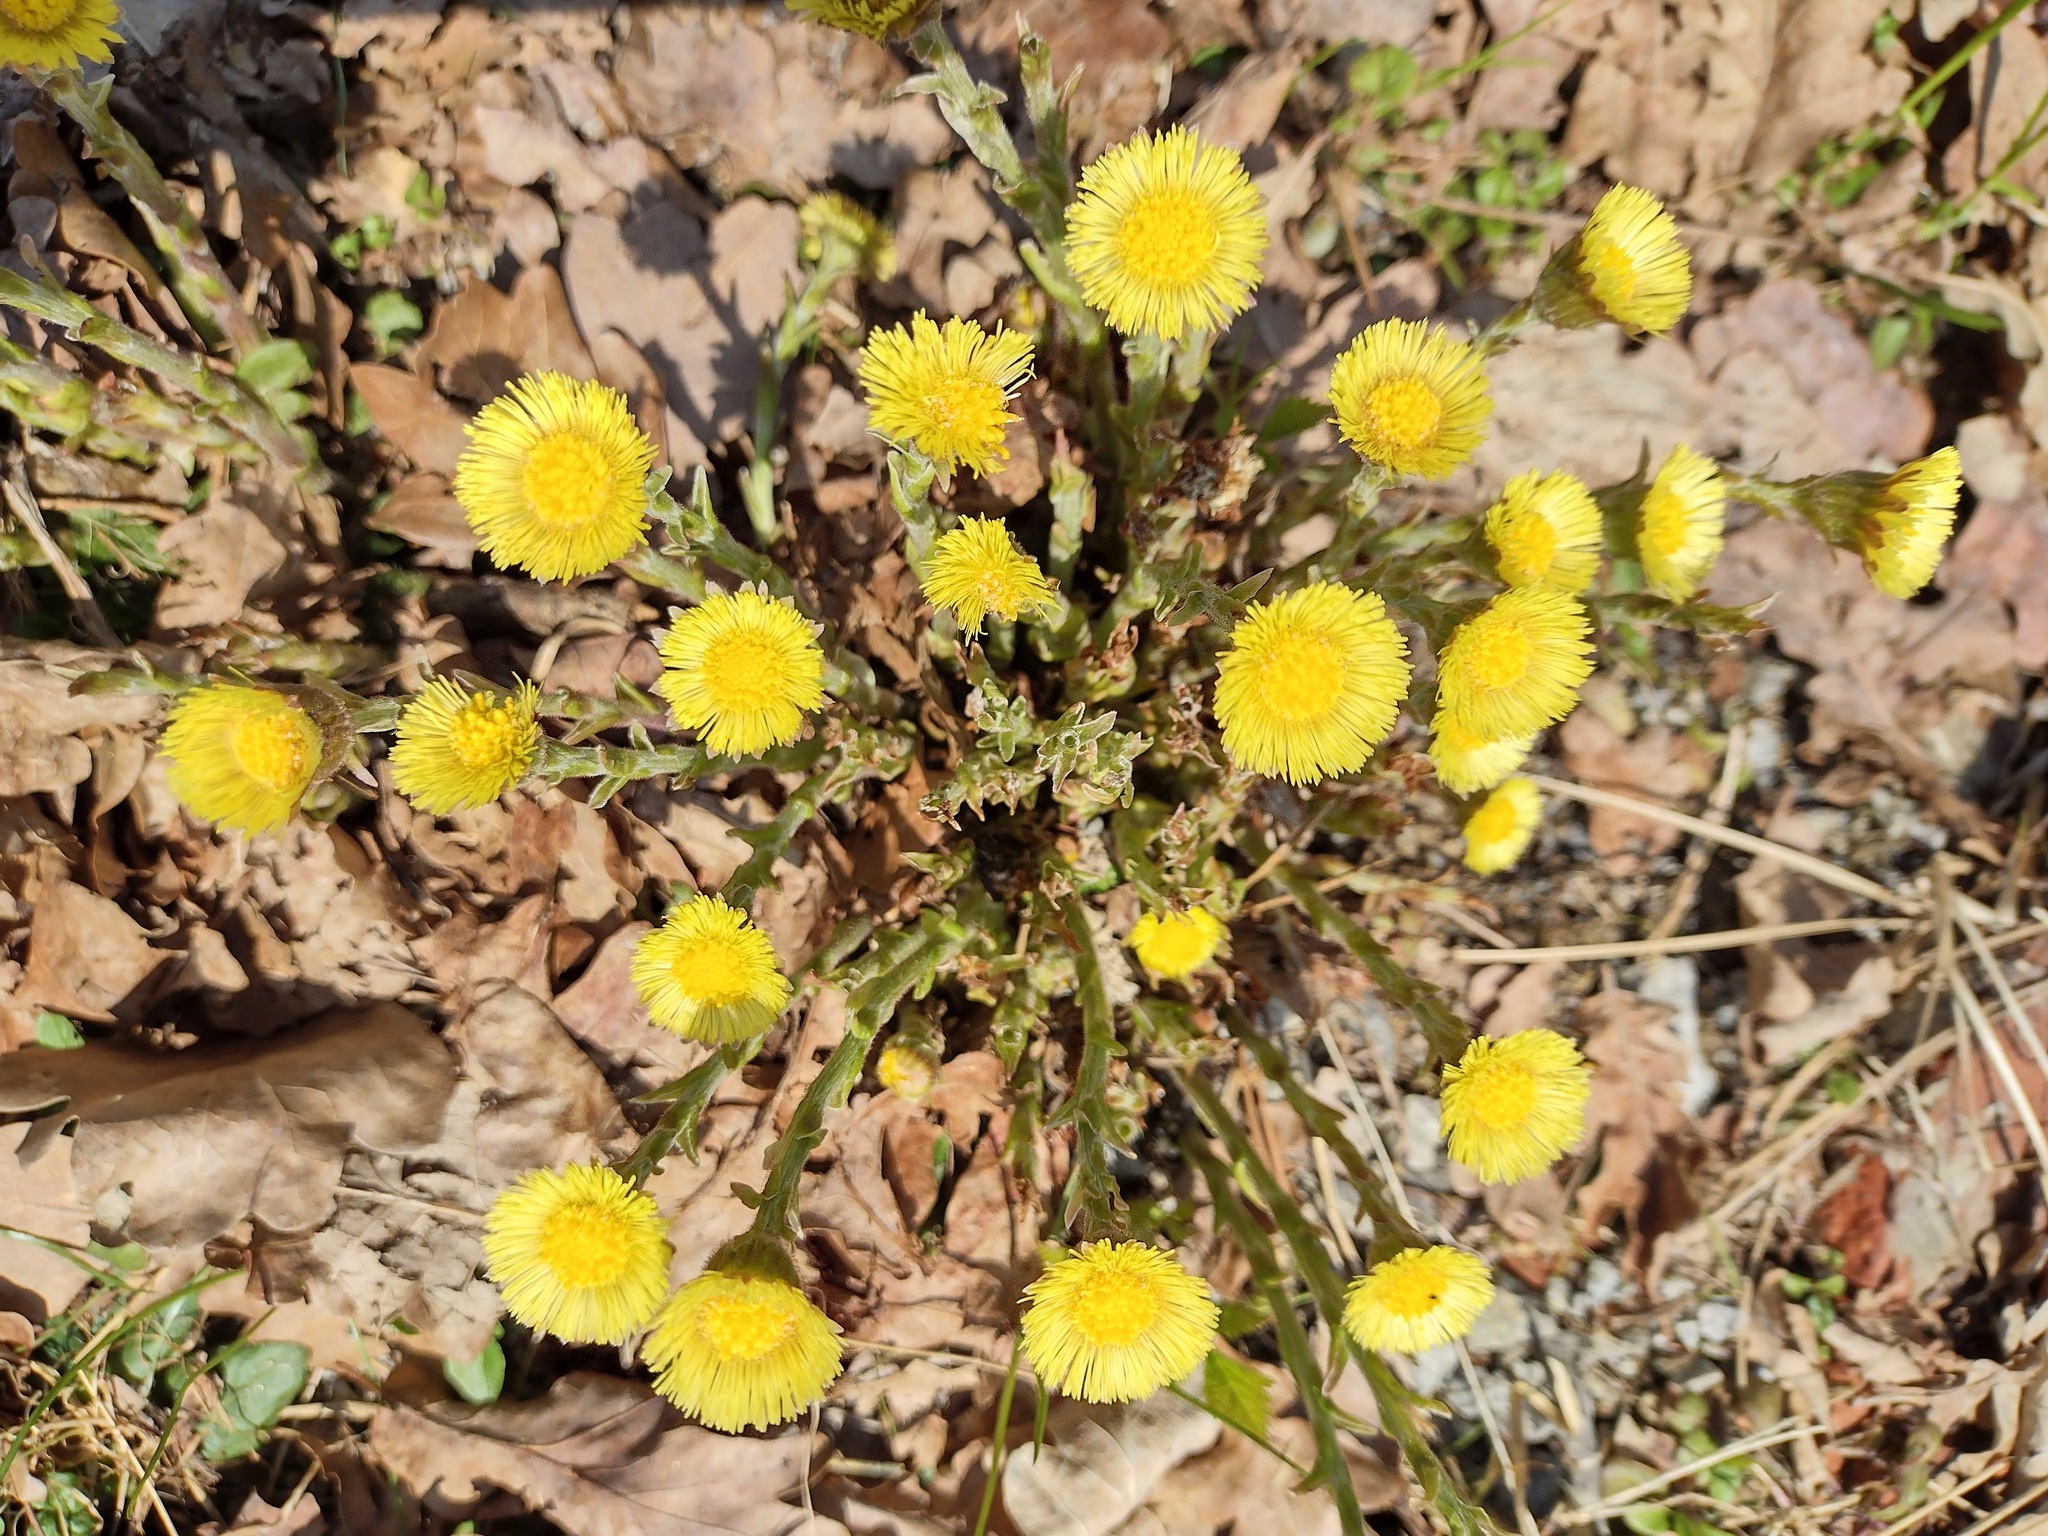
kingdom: Plantae
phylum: Tracheophyta
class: Magnoliopsida
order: Asterales
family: Asteraceae
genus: Tussilago
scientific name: Tussilago farfara
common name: Coltsfoot
